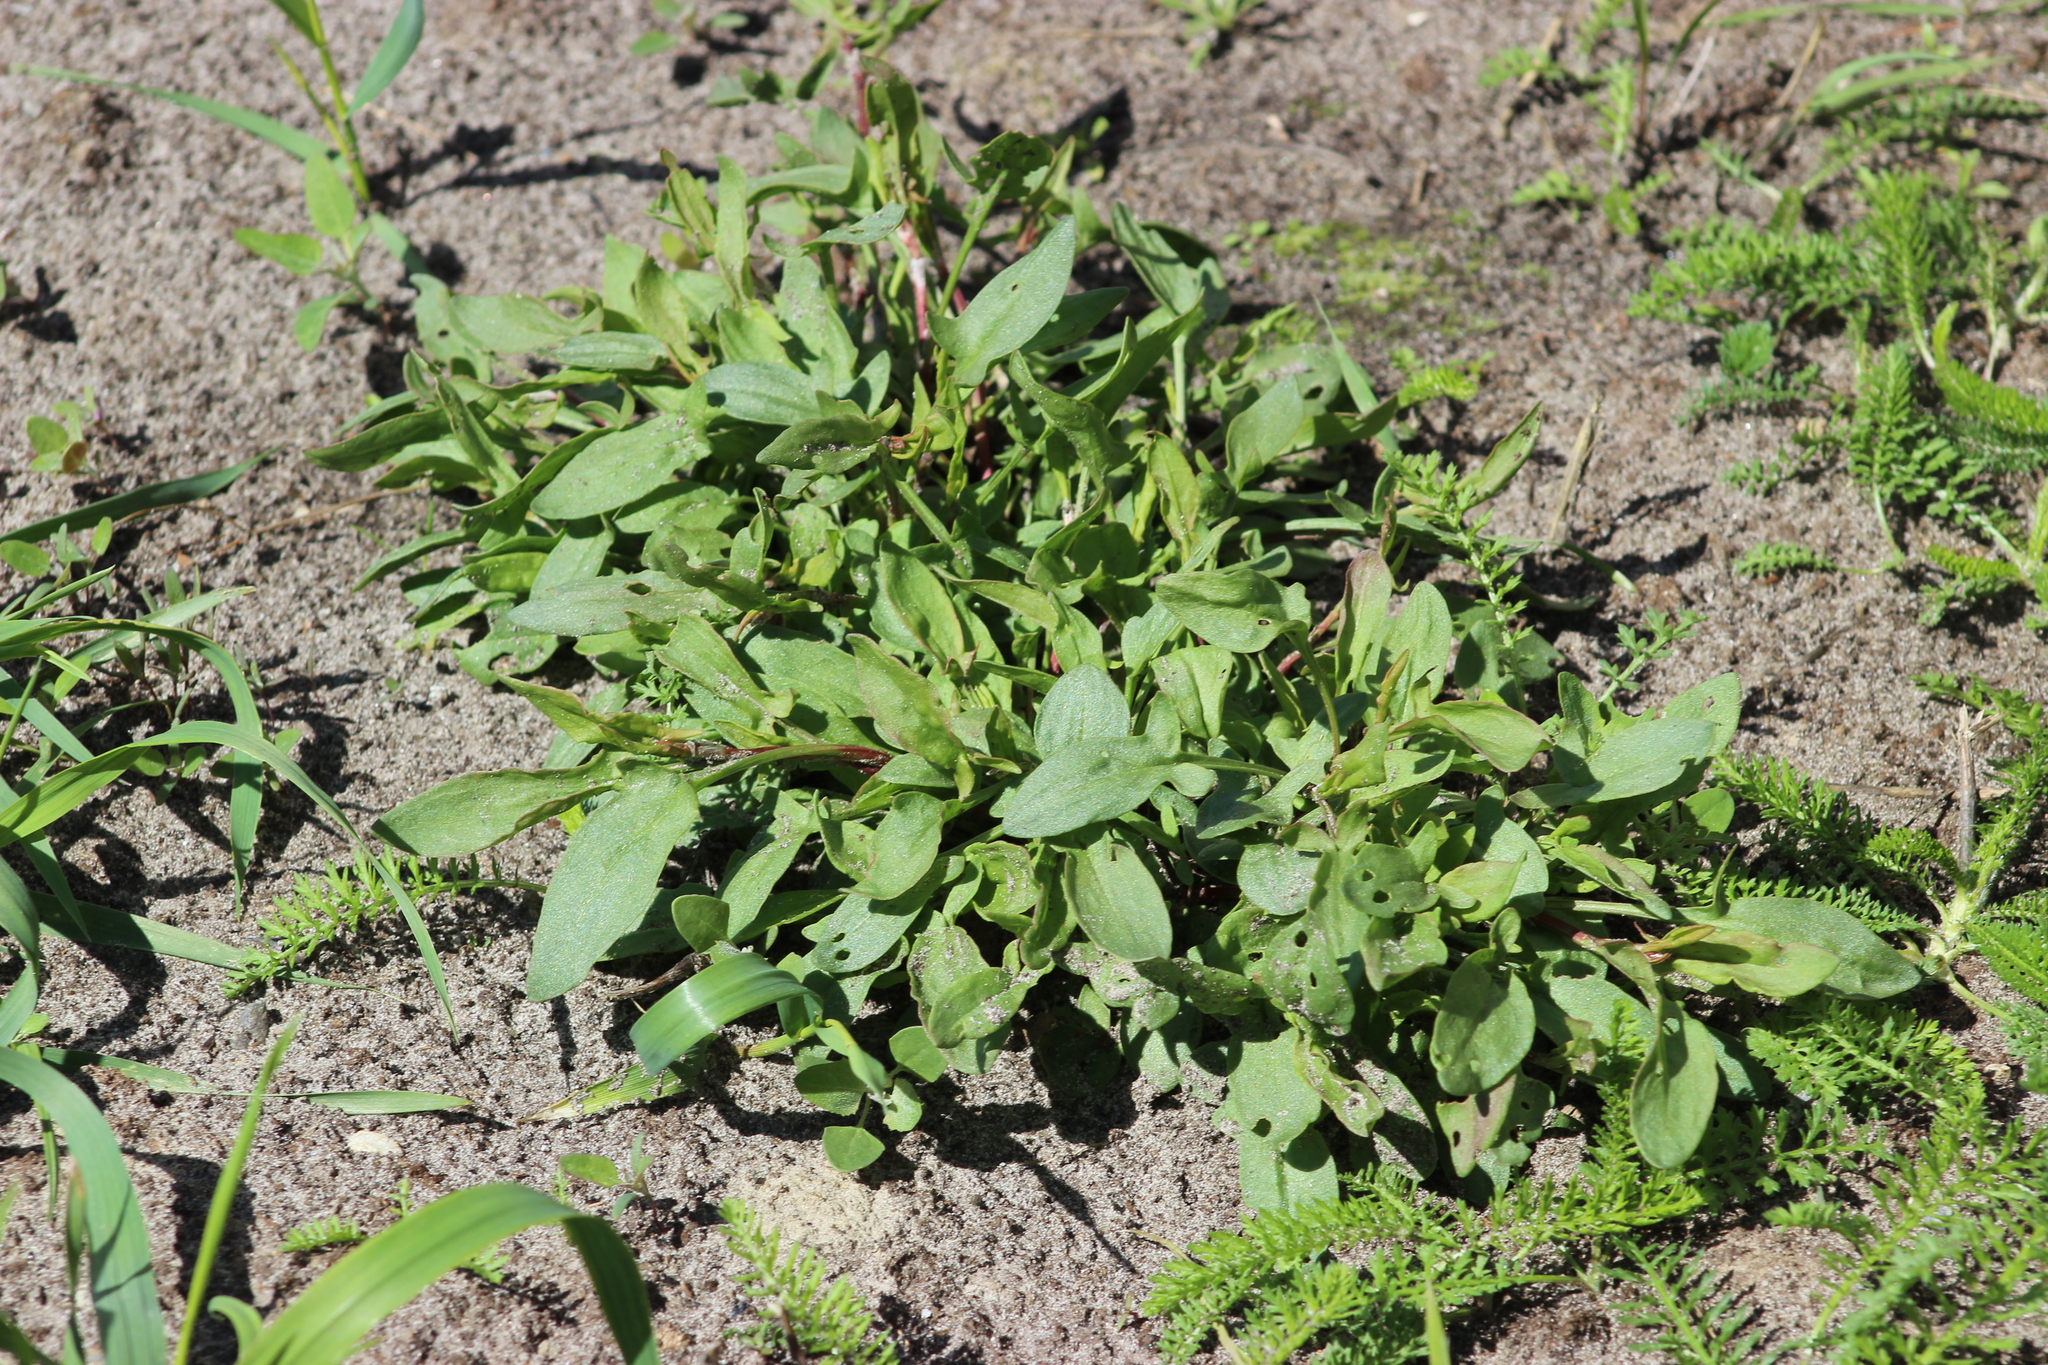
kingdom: Plantae
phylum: Tracheophyta
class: Magnoliopsida
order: Caryophyllales
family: Polygonaceae
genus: Rumex
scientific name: Rumex acetosella
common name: Common sheep sorrel
